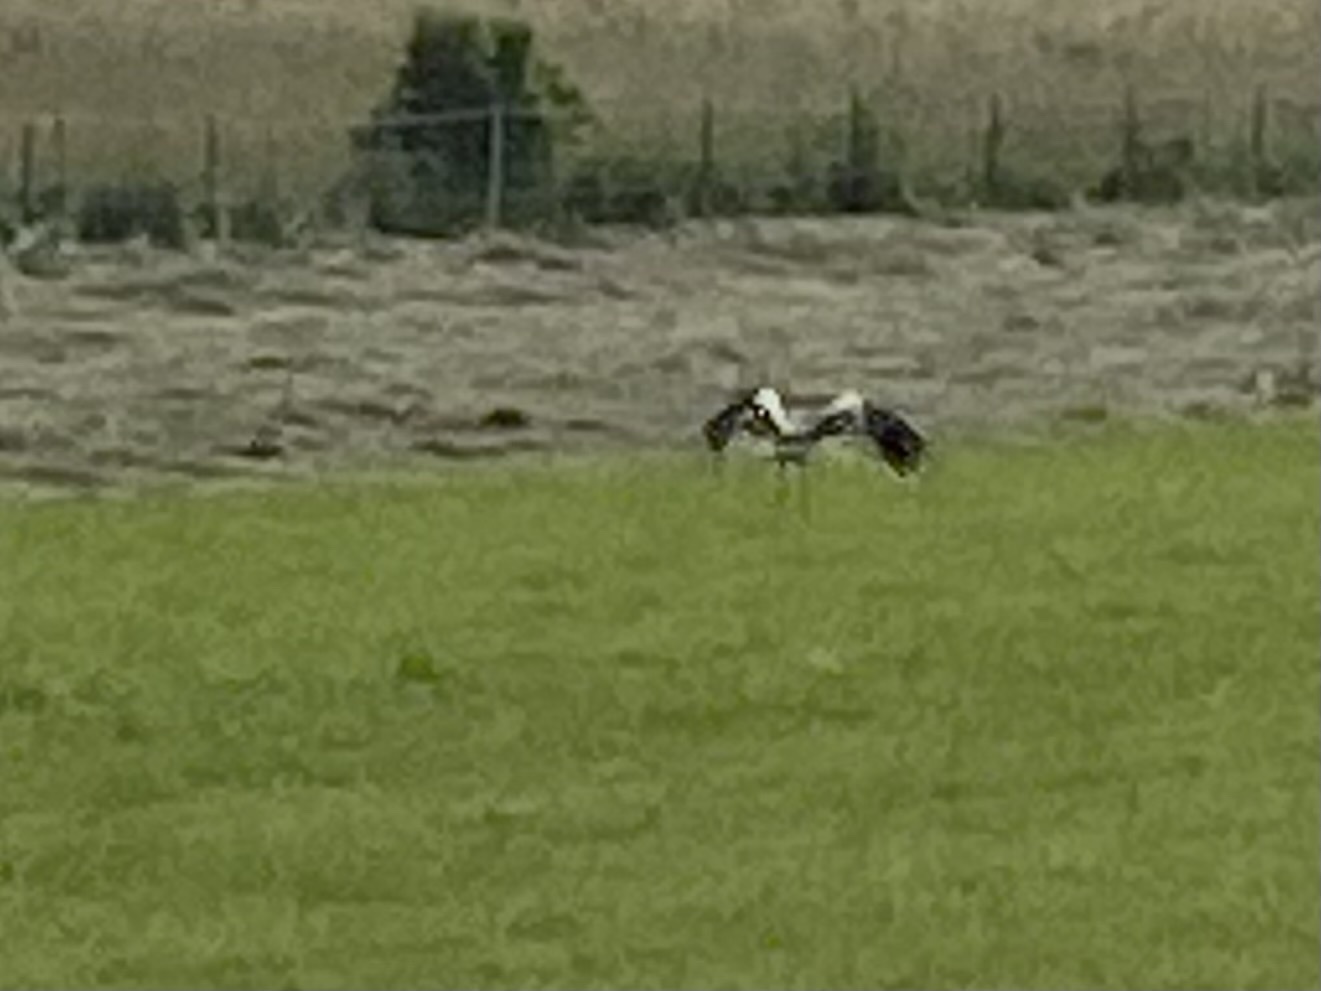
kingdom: Animalia
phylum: Chordata
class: Aves
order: Ciconiiformes
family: Ciconiidae
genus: Ciconia
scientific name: Ciconia ciconia
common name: White stork
